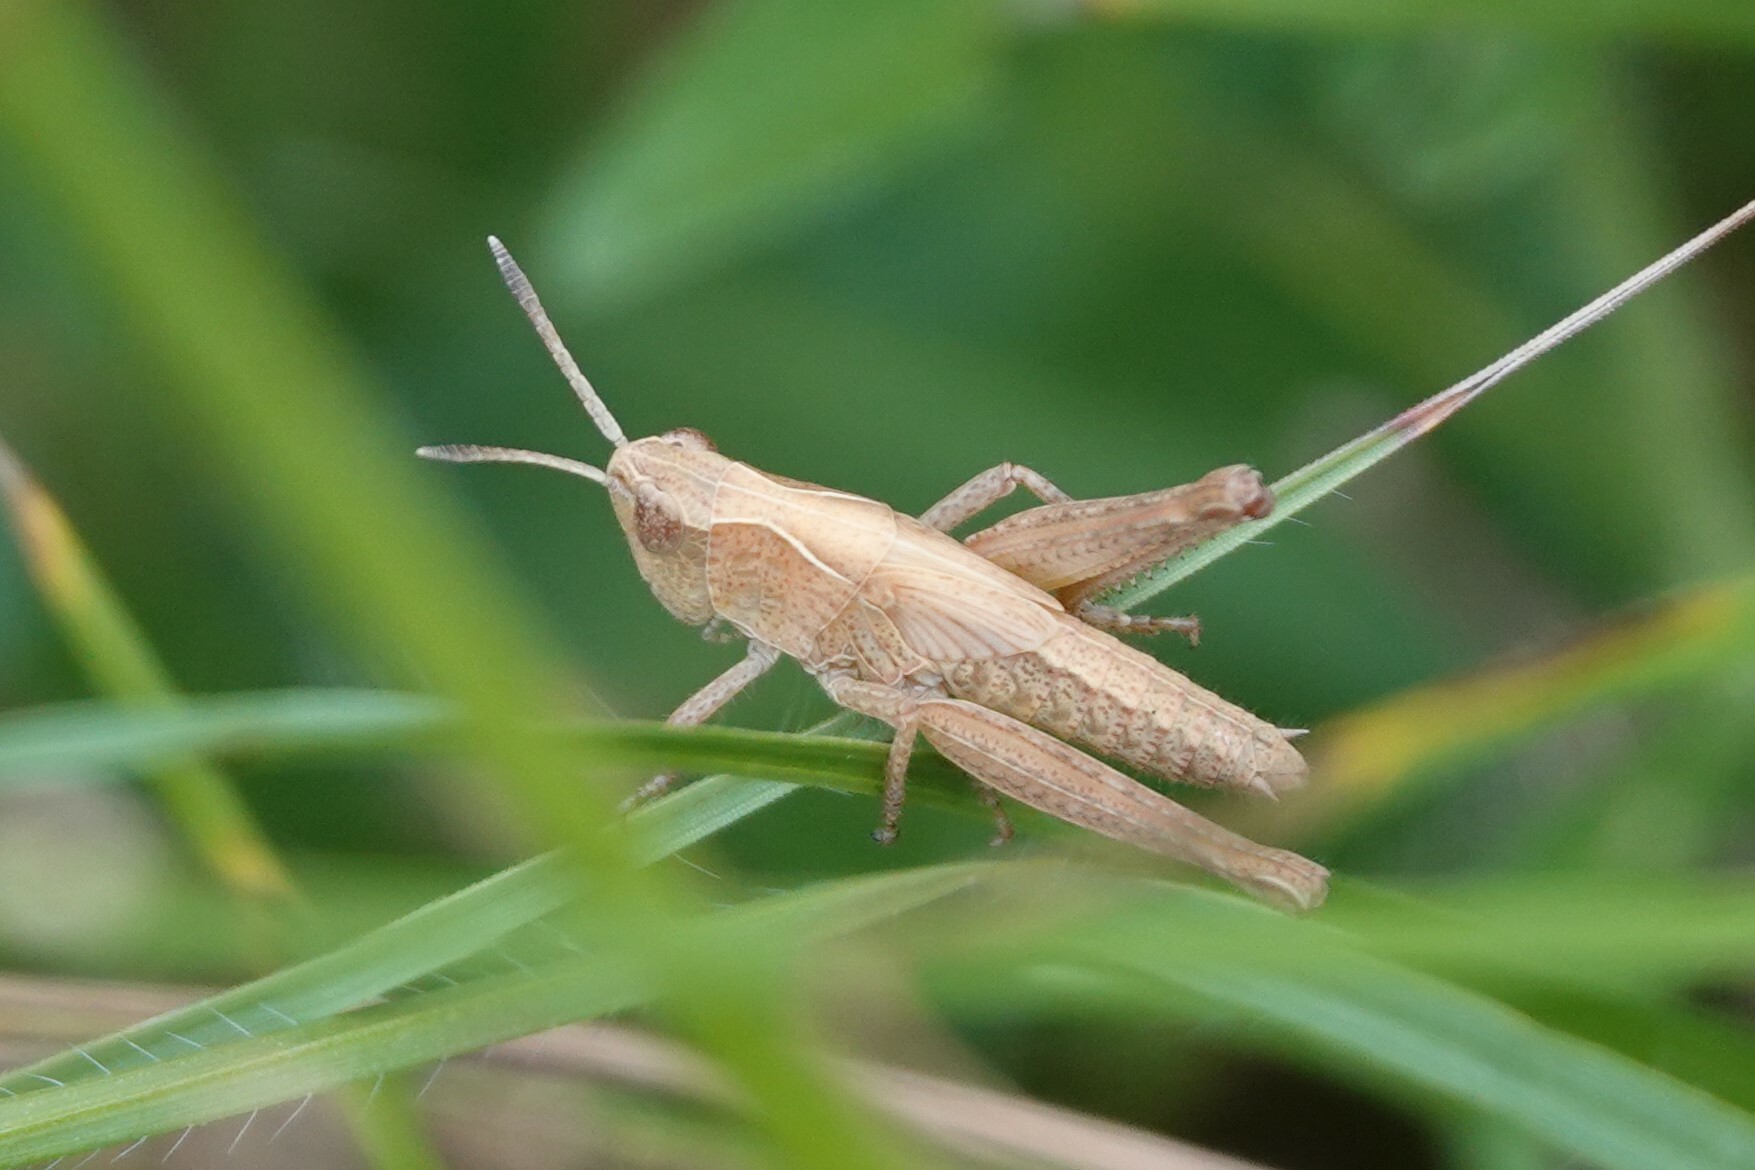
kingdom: Animalia
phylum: Arthropoda
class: Insecta
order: Orthoptera
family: Acrididae
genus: Gomphocerippus
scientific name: Gomphocerippus rufus
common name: Rufous grasshopper
